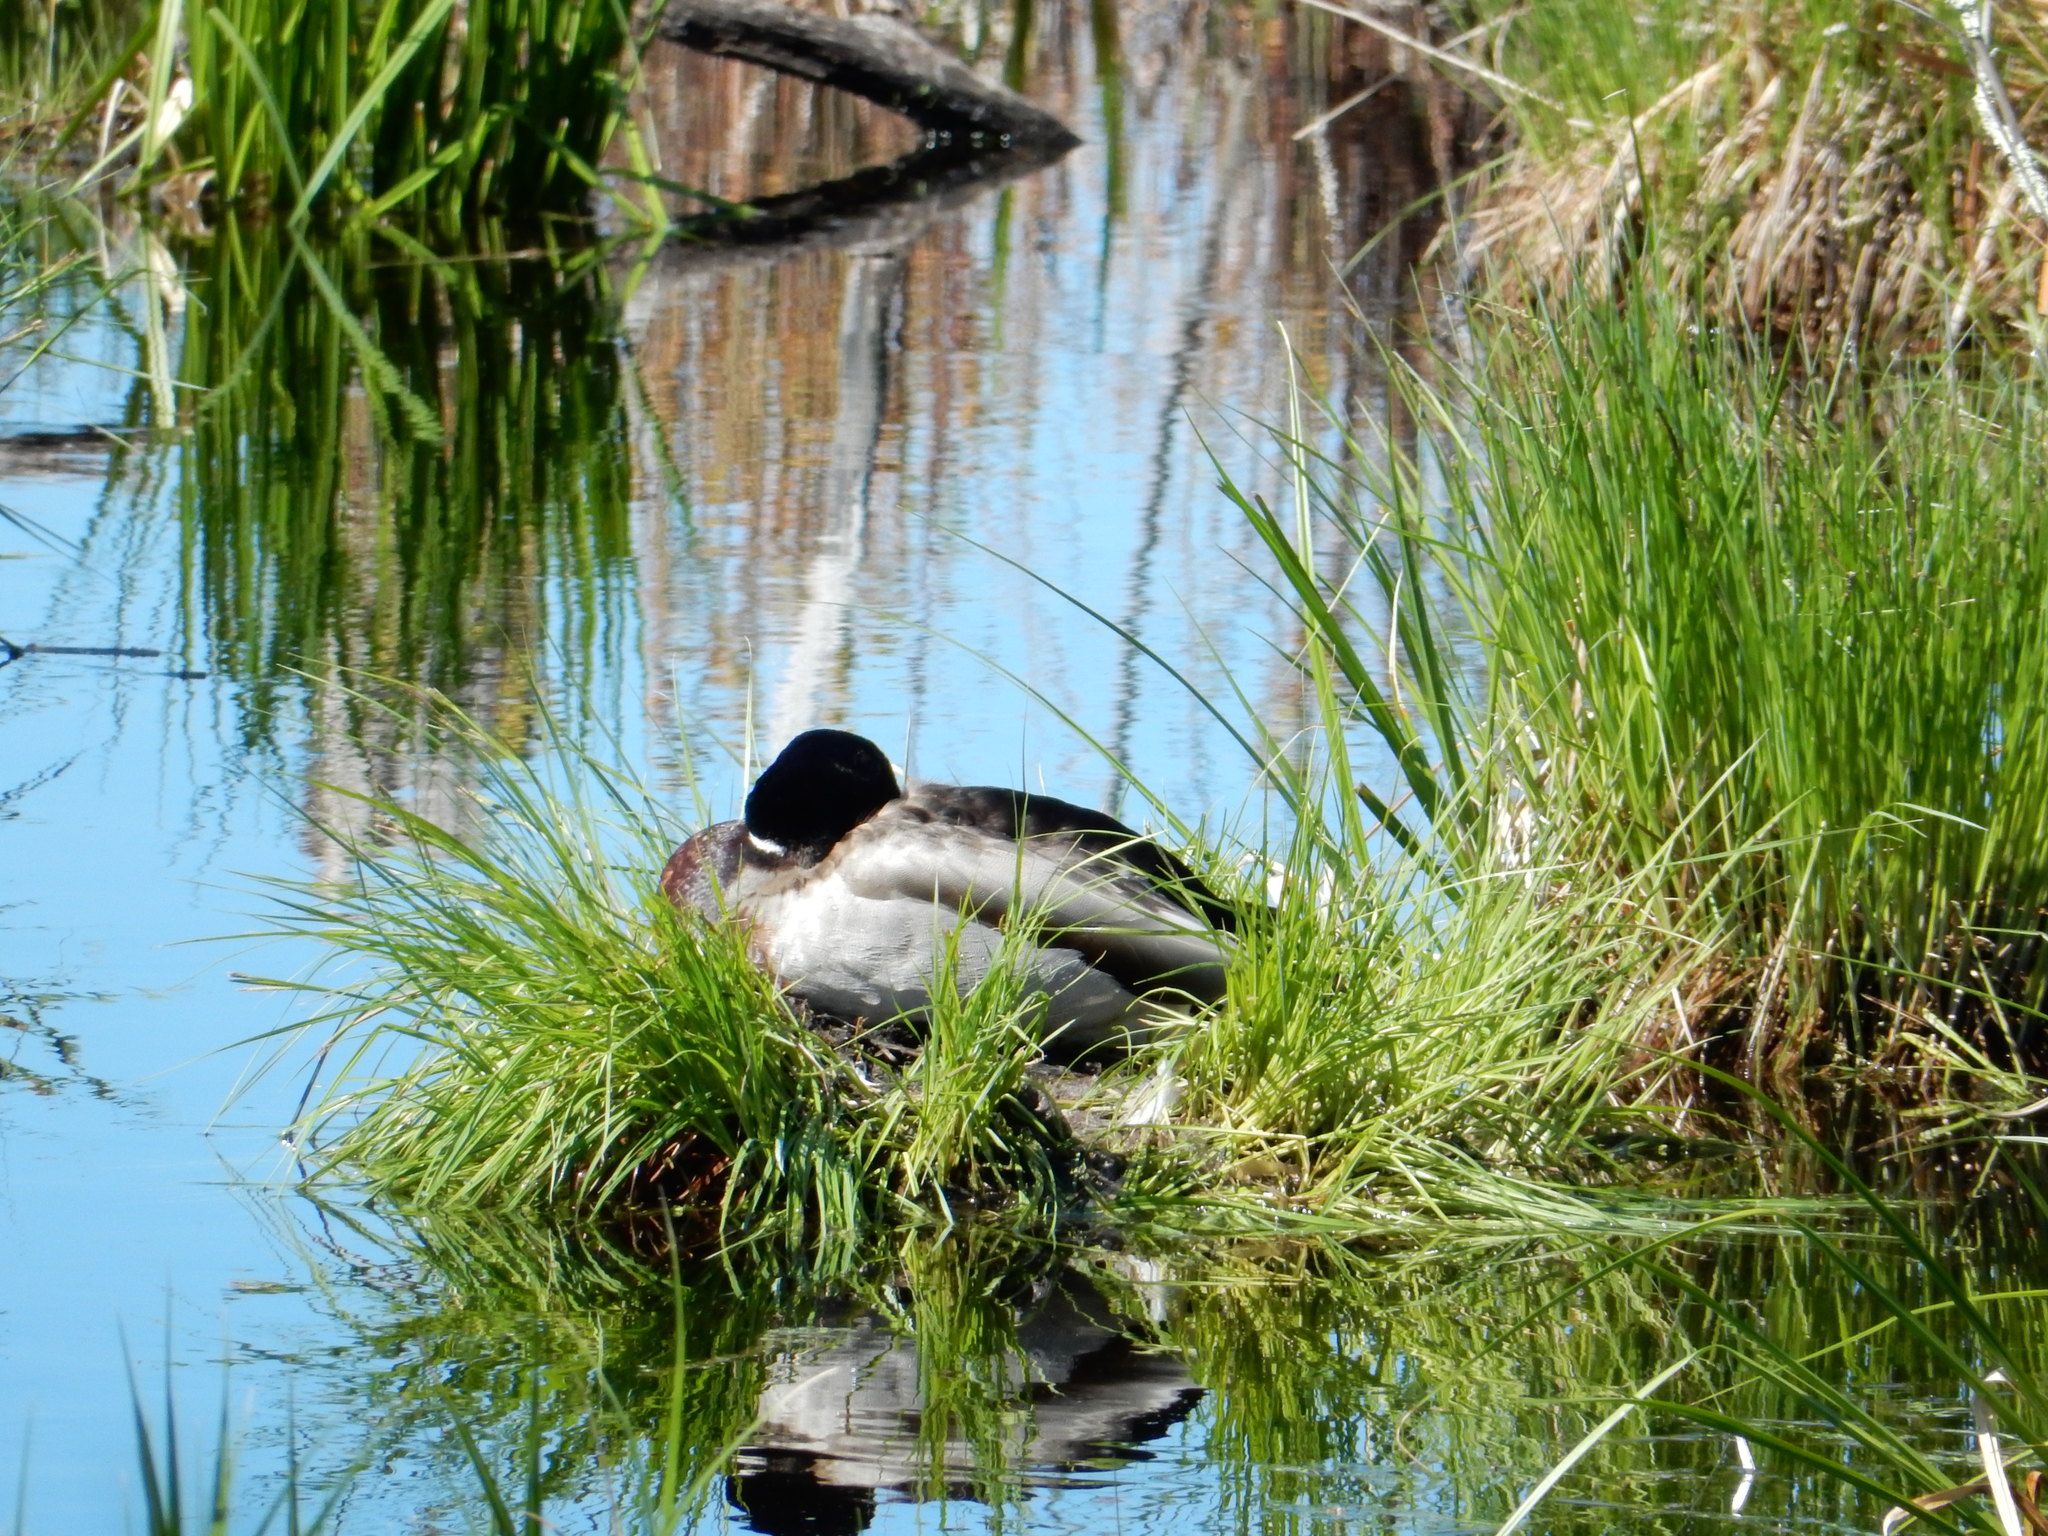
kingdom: Animalia
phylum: Chordata
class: Aves
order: Anseriformes
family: Anatidae
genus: Anas
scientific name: Anas platyrhynchos
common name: Mallard
